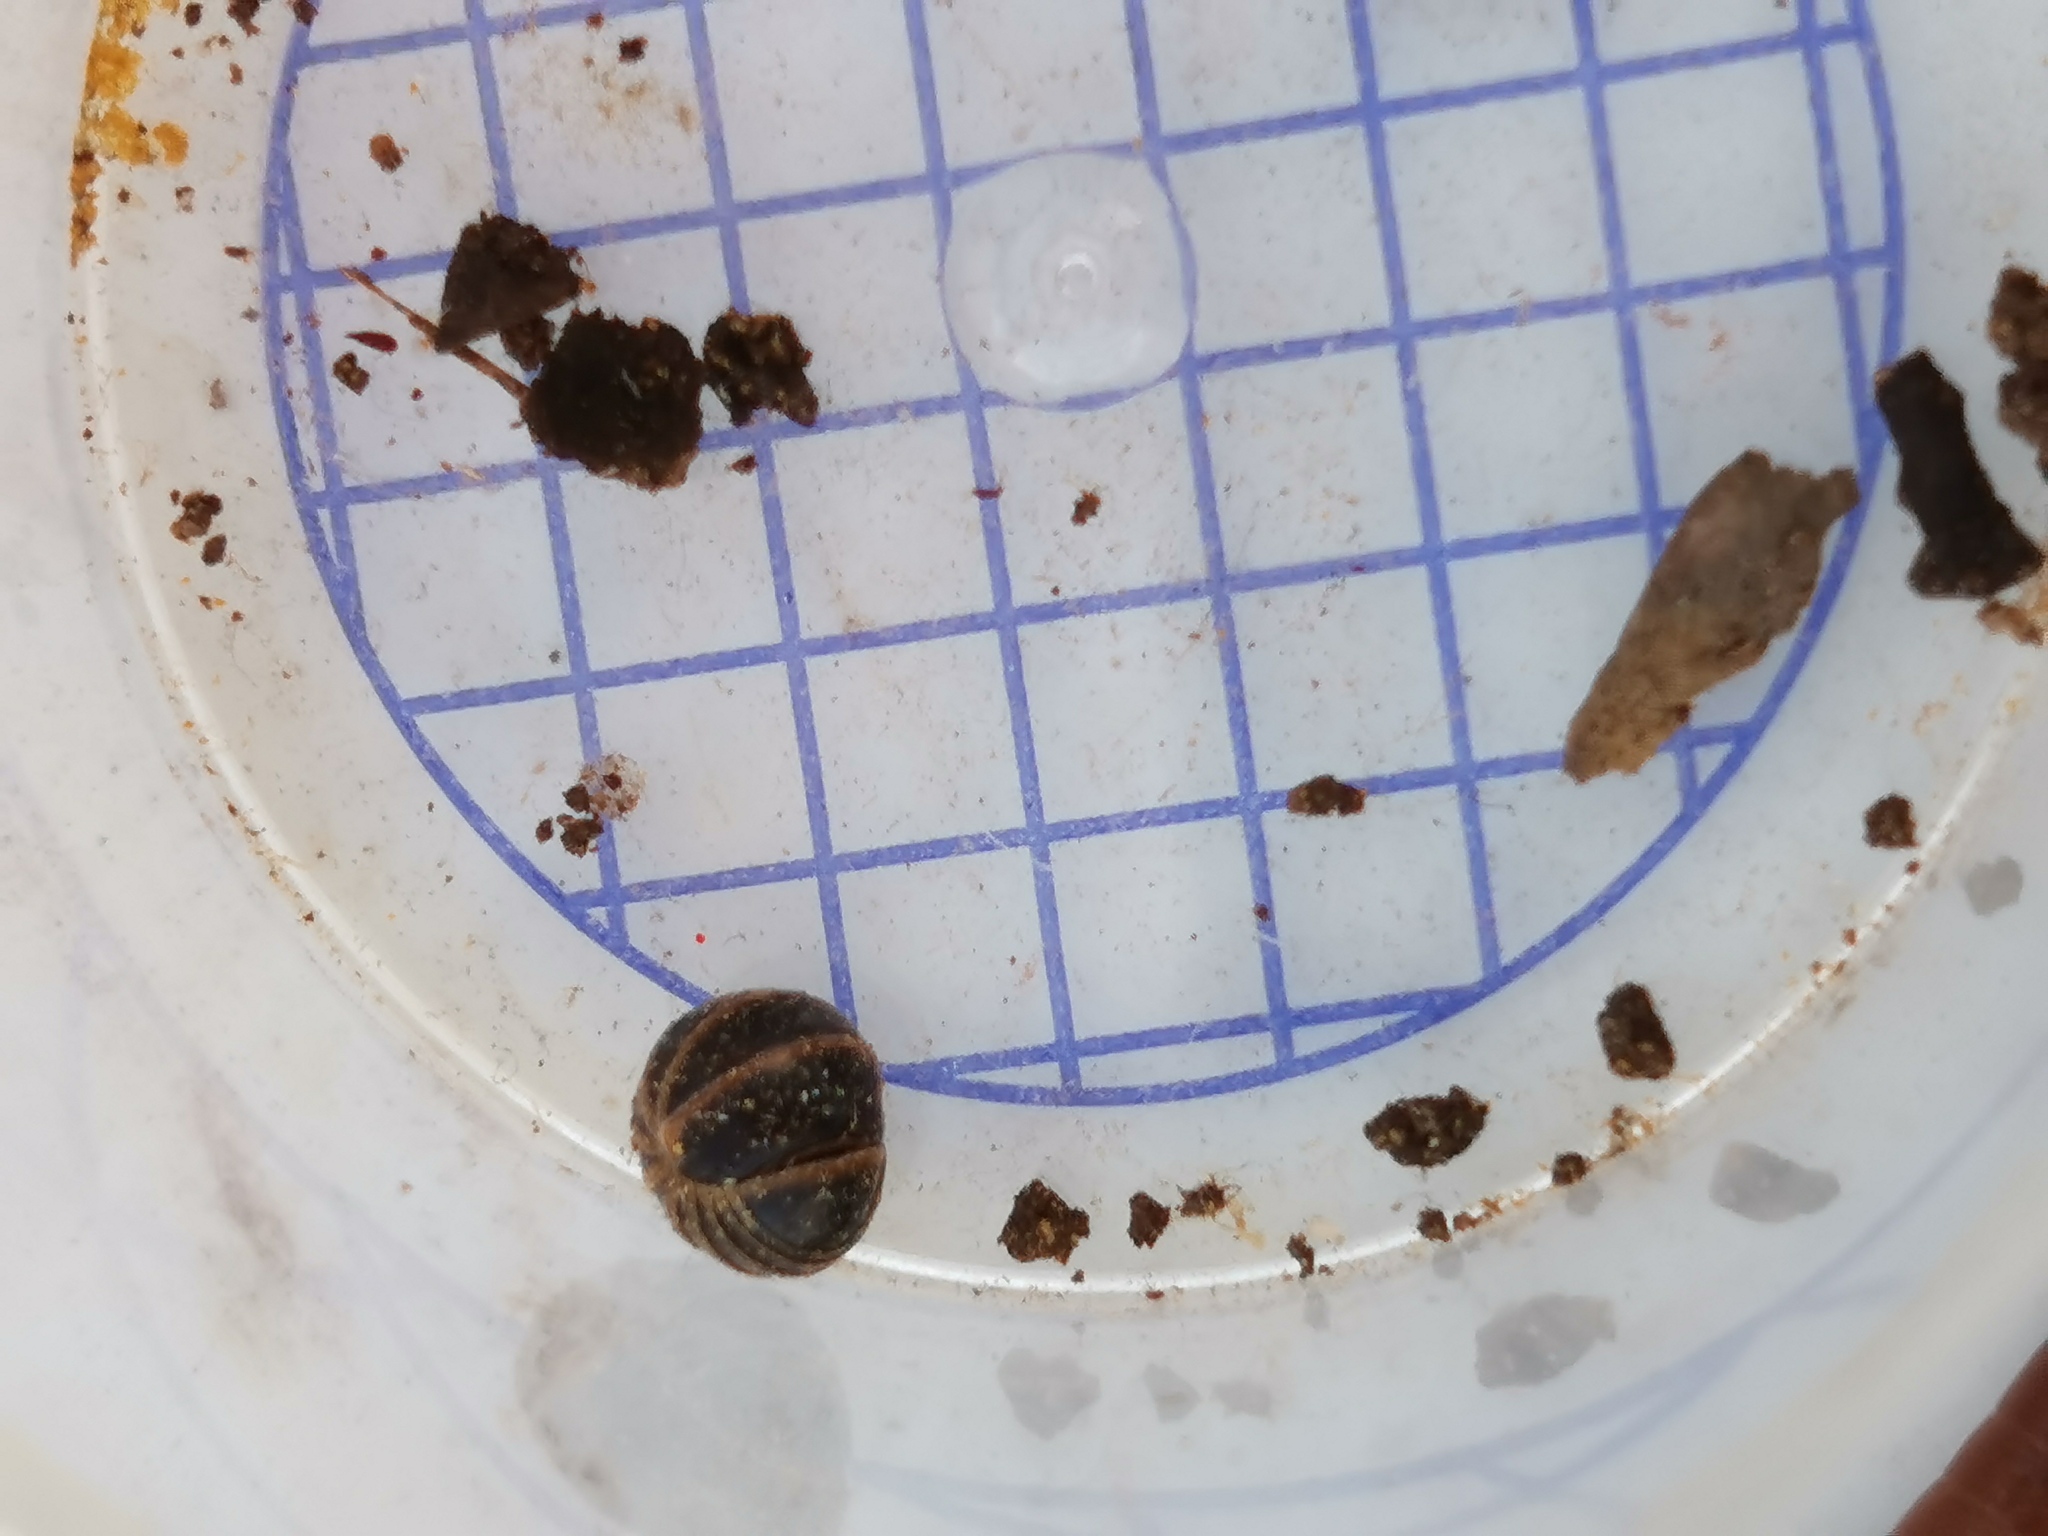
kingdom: Animalia
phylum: Arthropoda
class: Diplopoda
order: Glomerida
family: Glomeridae
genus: Glomeris
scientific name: Glomeris marginata
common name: Bordered pill millipede
